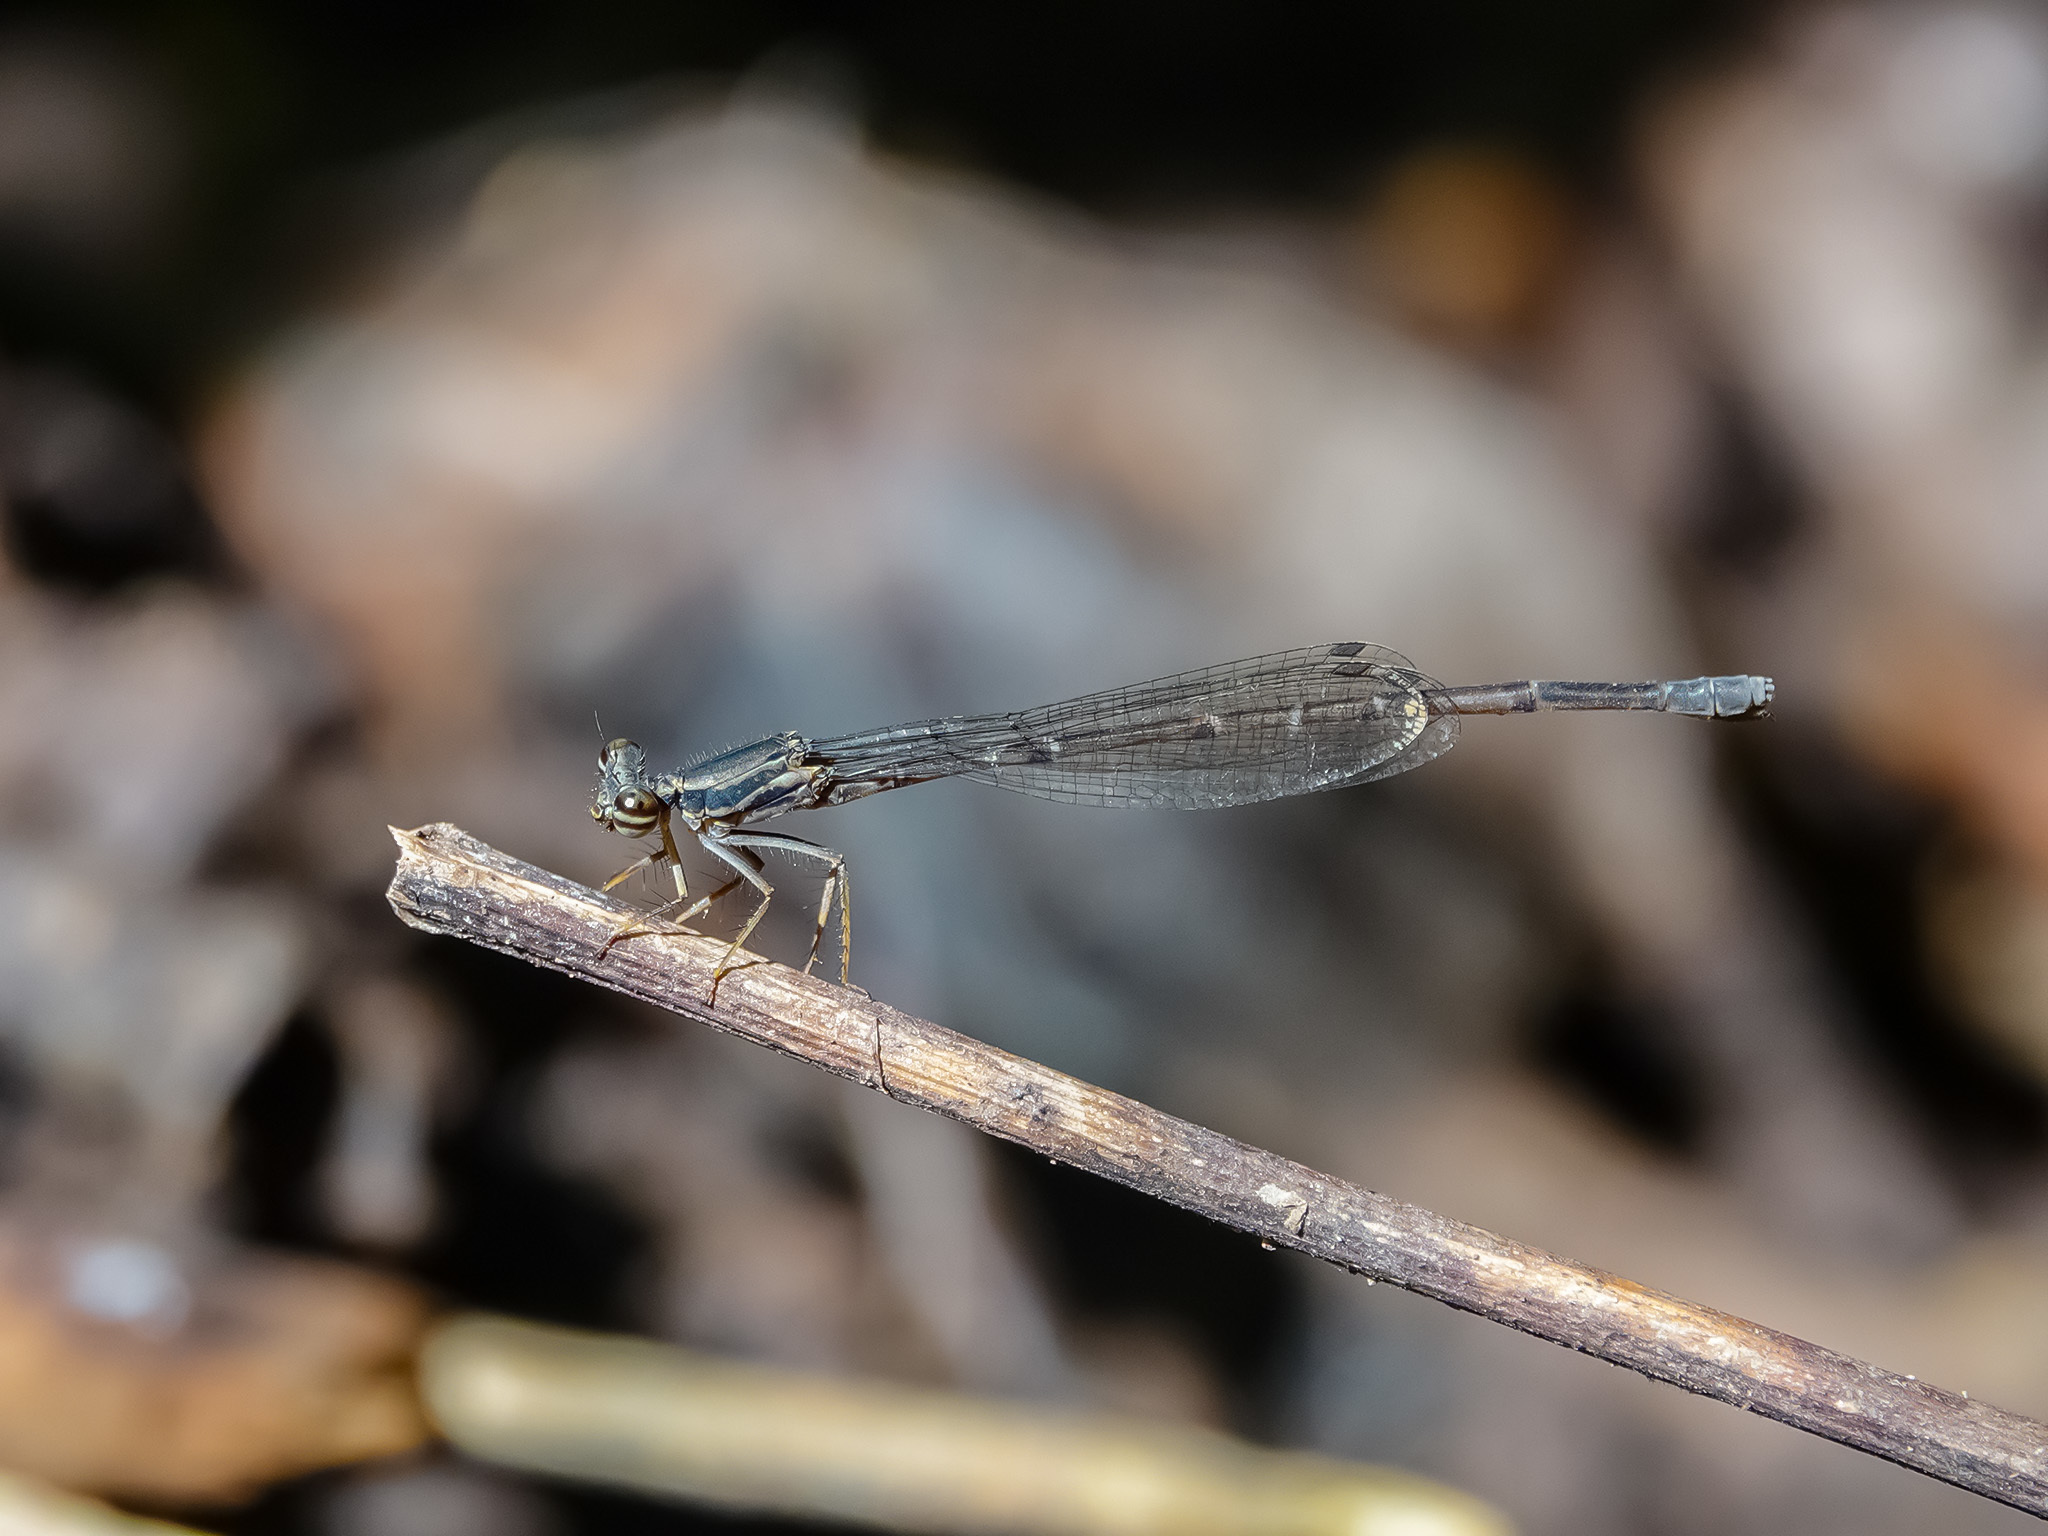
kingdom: Animalia
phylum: Arthropoda
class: Insecta
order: Odonata
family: Platycnemididae
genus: Copera
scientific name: Copera marginipes
